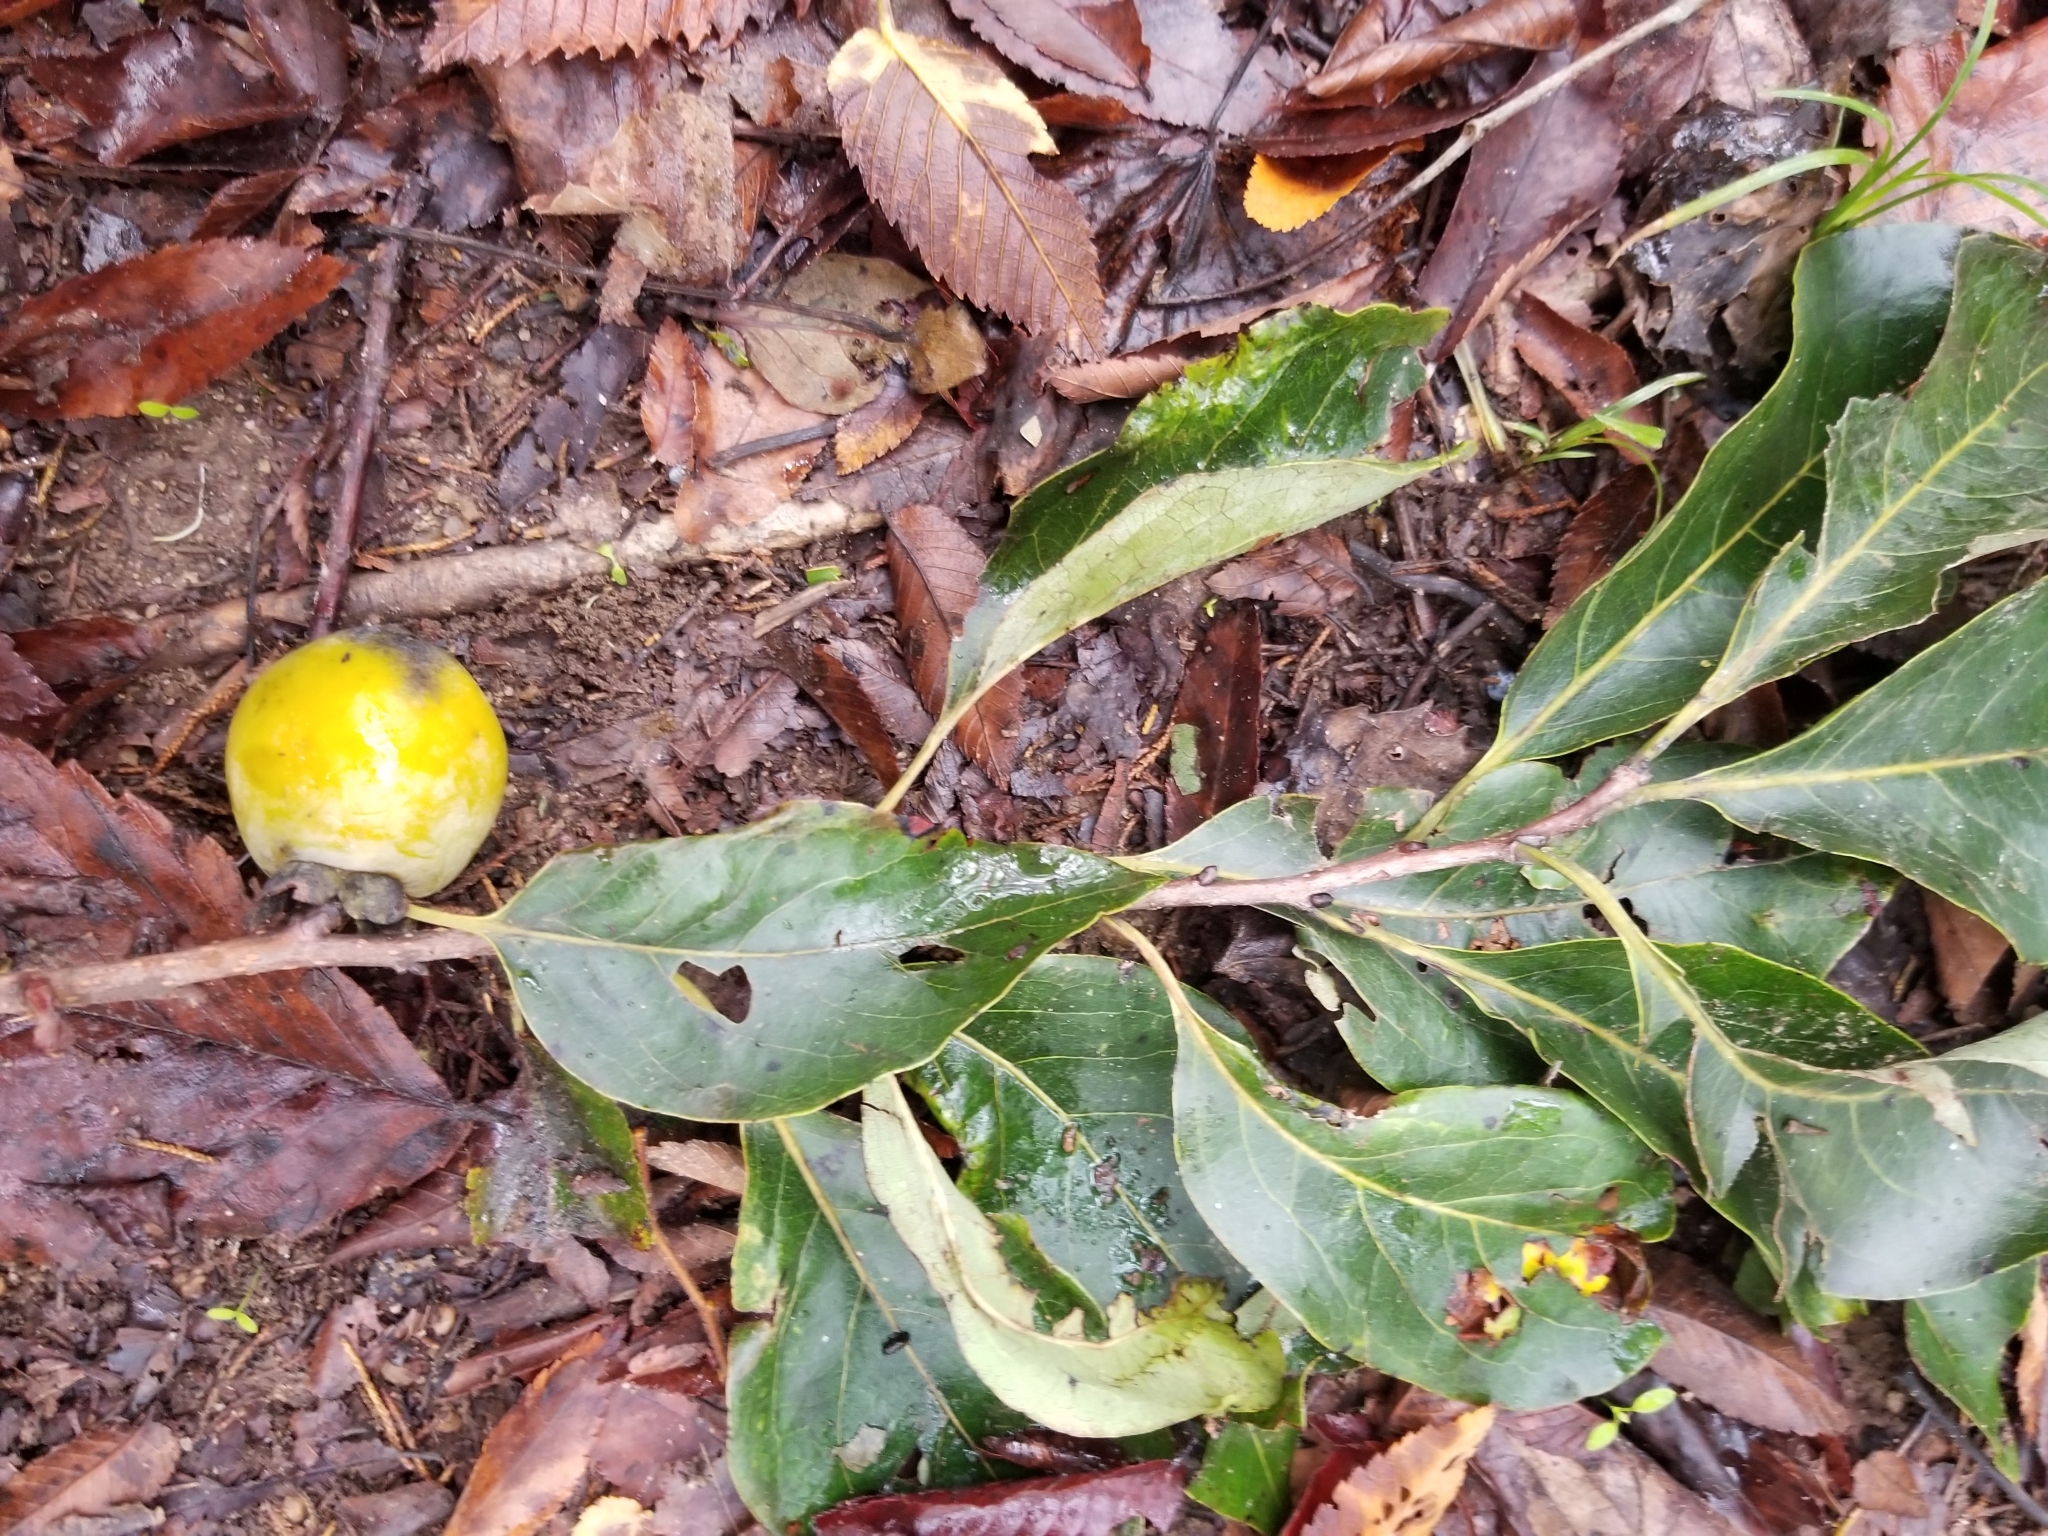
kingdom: Plantae
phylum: Tracheophyta
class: Magnoliopsida
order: Ericales
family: Ebenaceae
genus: Diospyros
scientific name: Diospyros virginiana
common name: Persimmon
